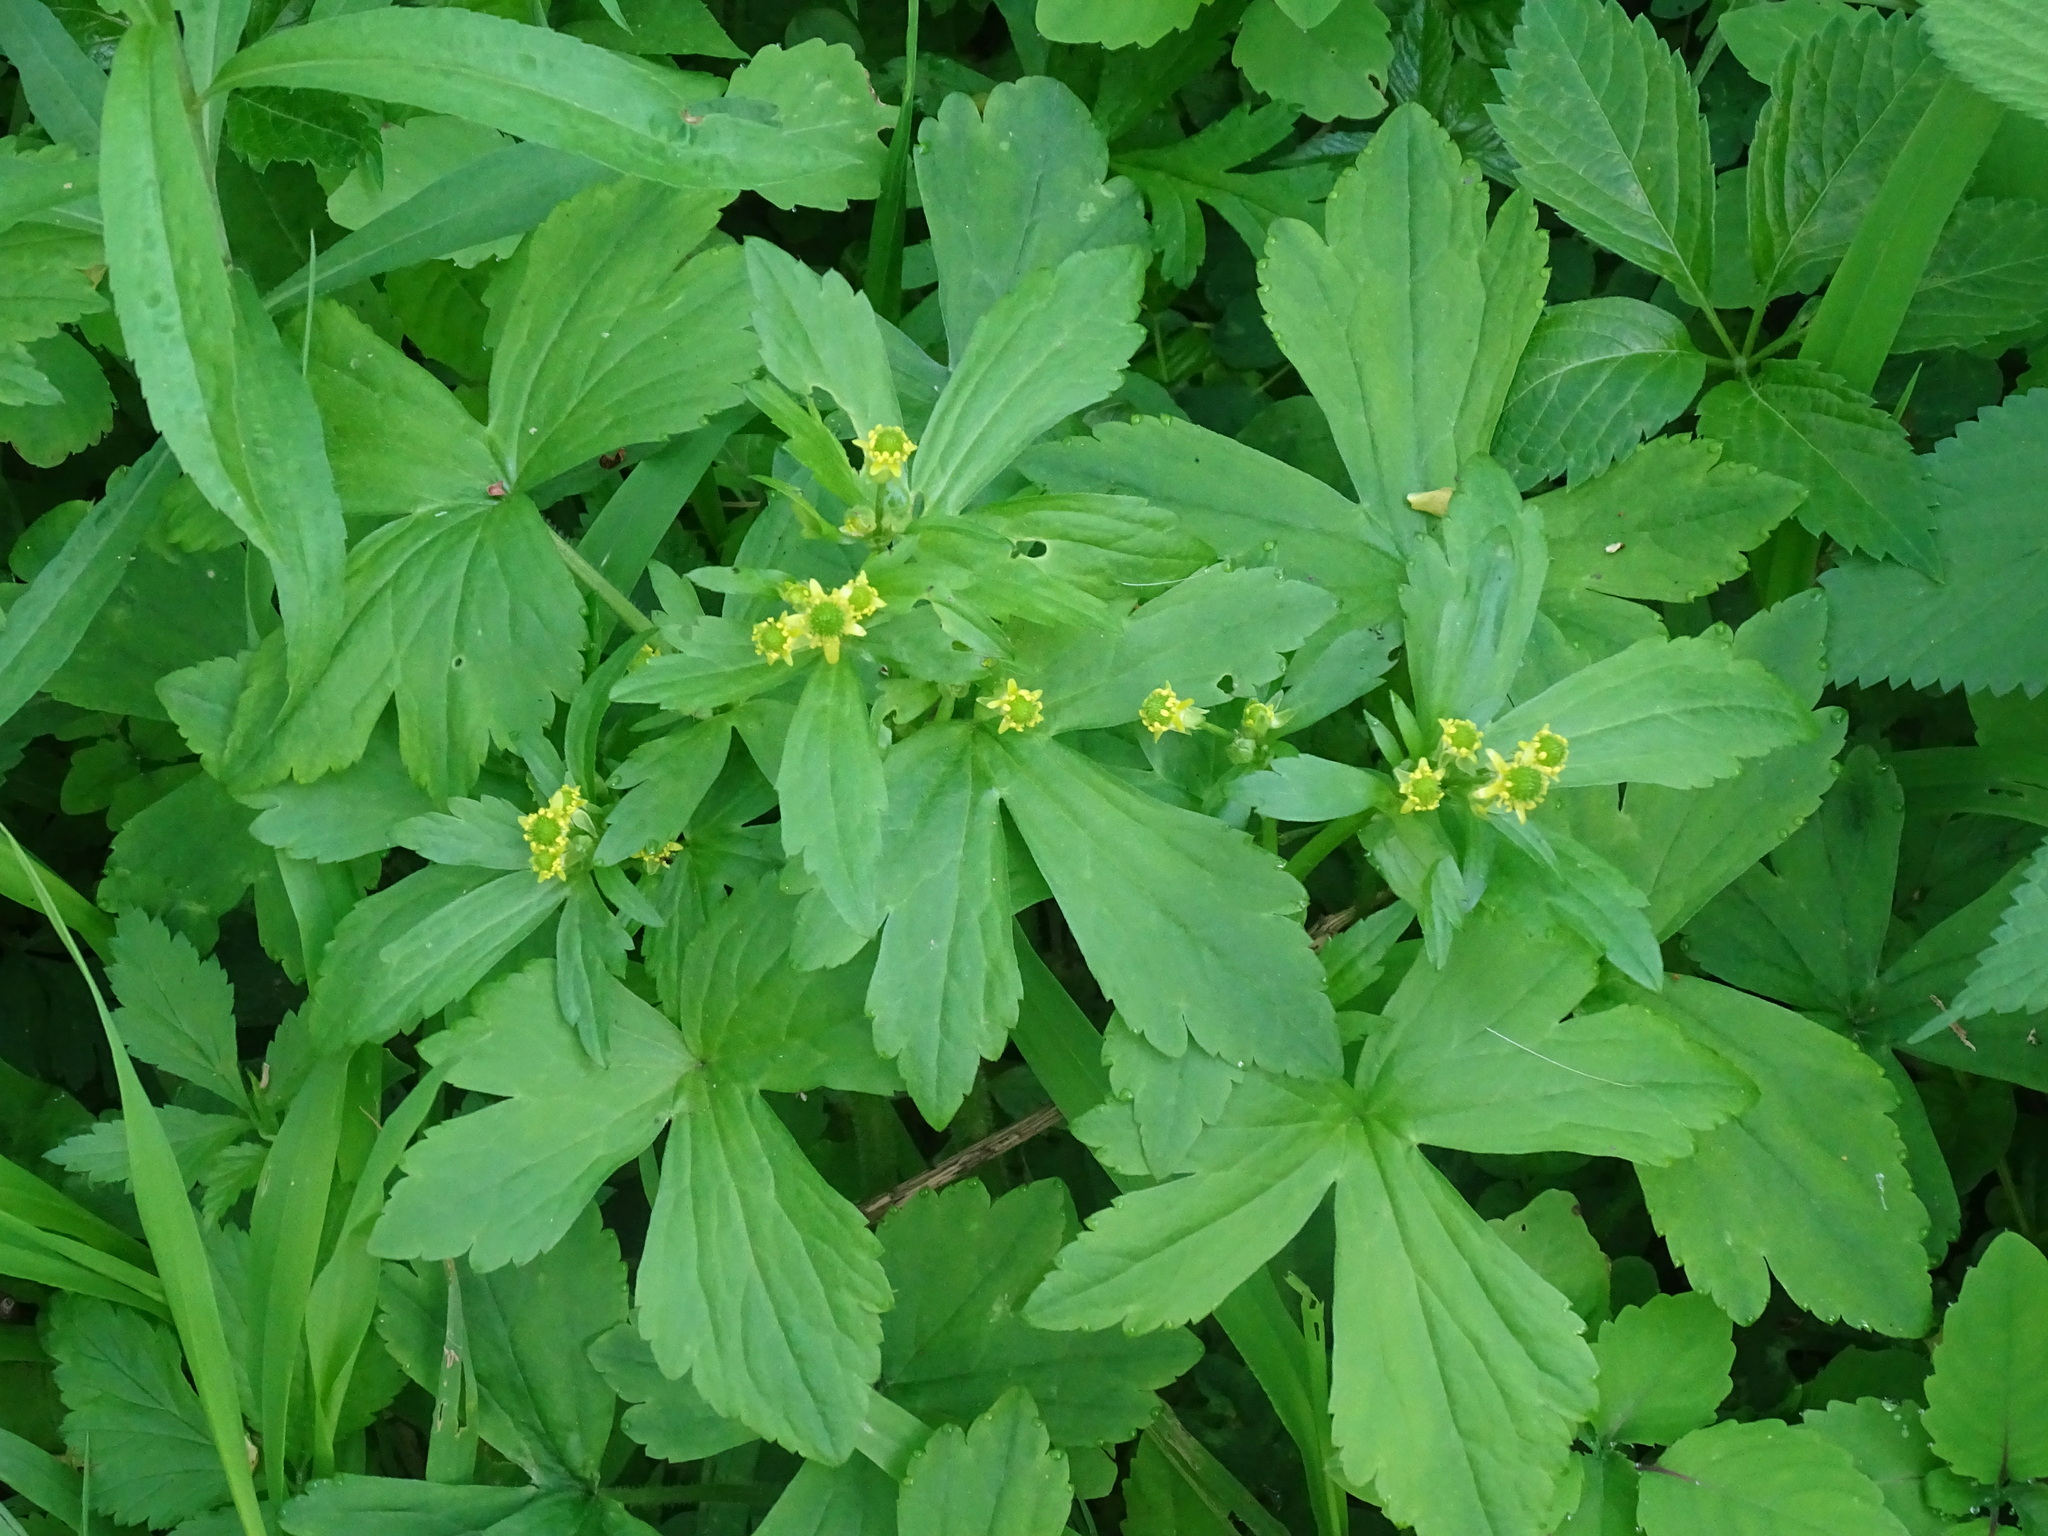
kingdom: Plantae
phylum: Tracheophyta
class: Magnoliopsida
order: Ranunculales
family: Ranunculaceae
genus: Ranunculus
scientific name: Ranunculus recurvatus
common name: Blisterwort
